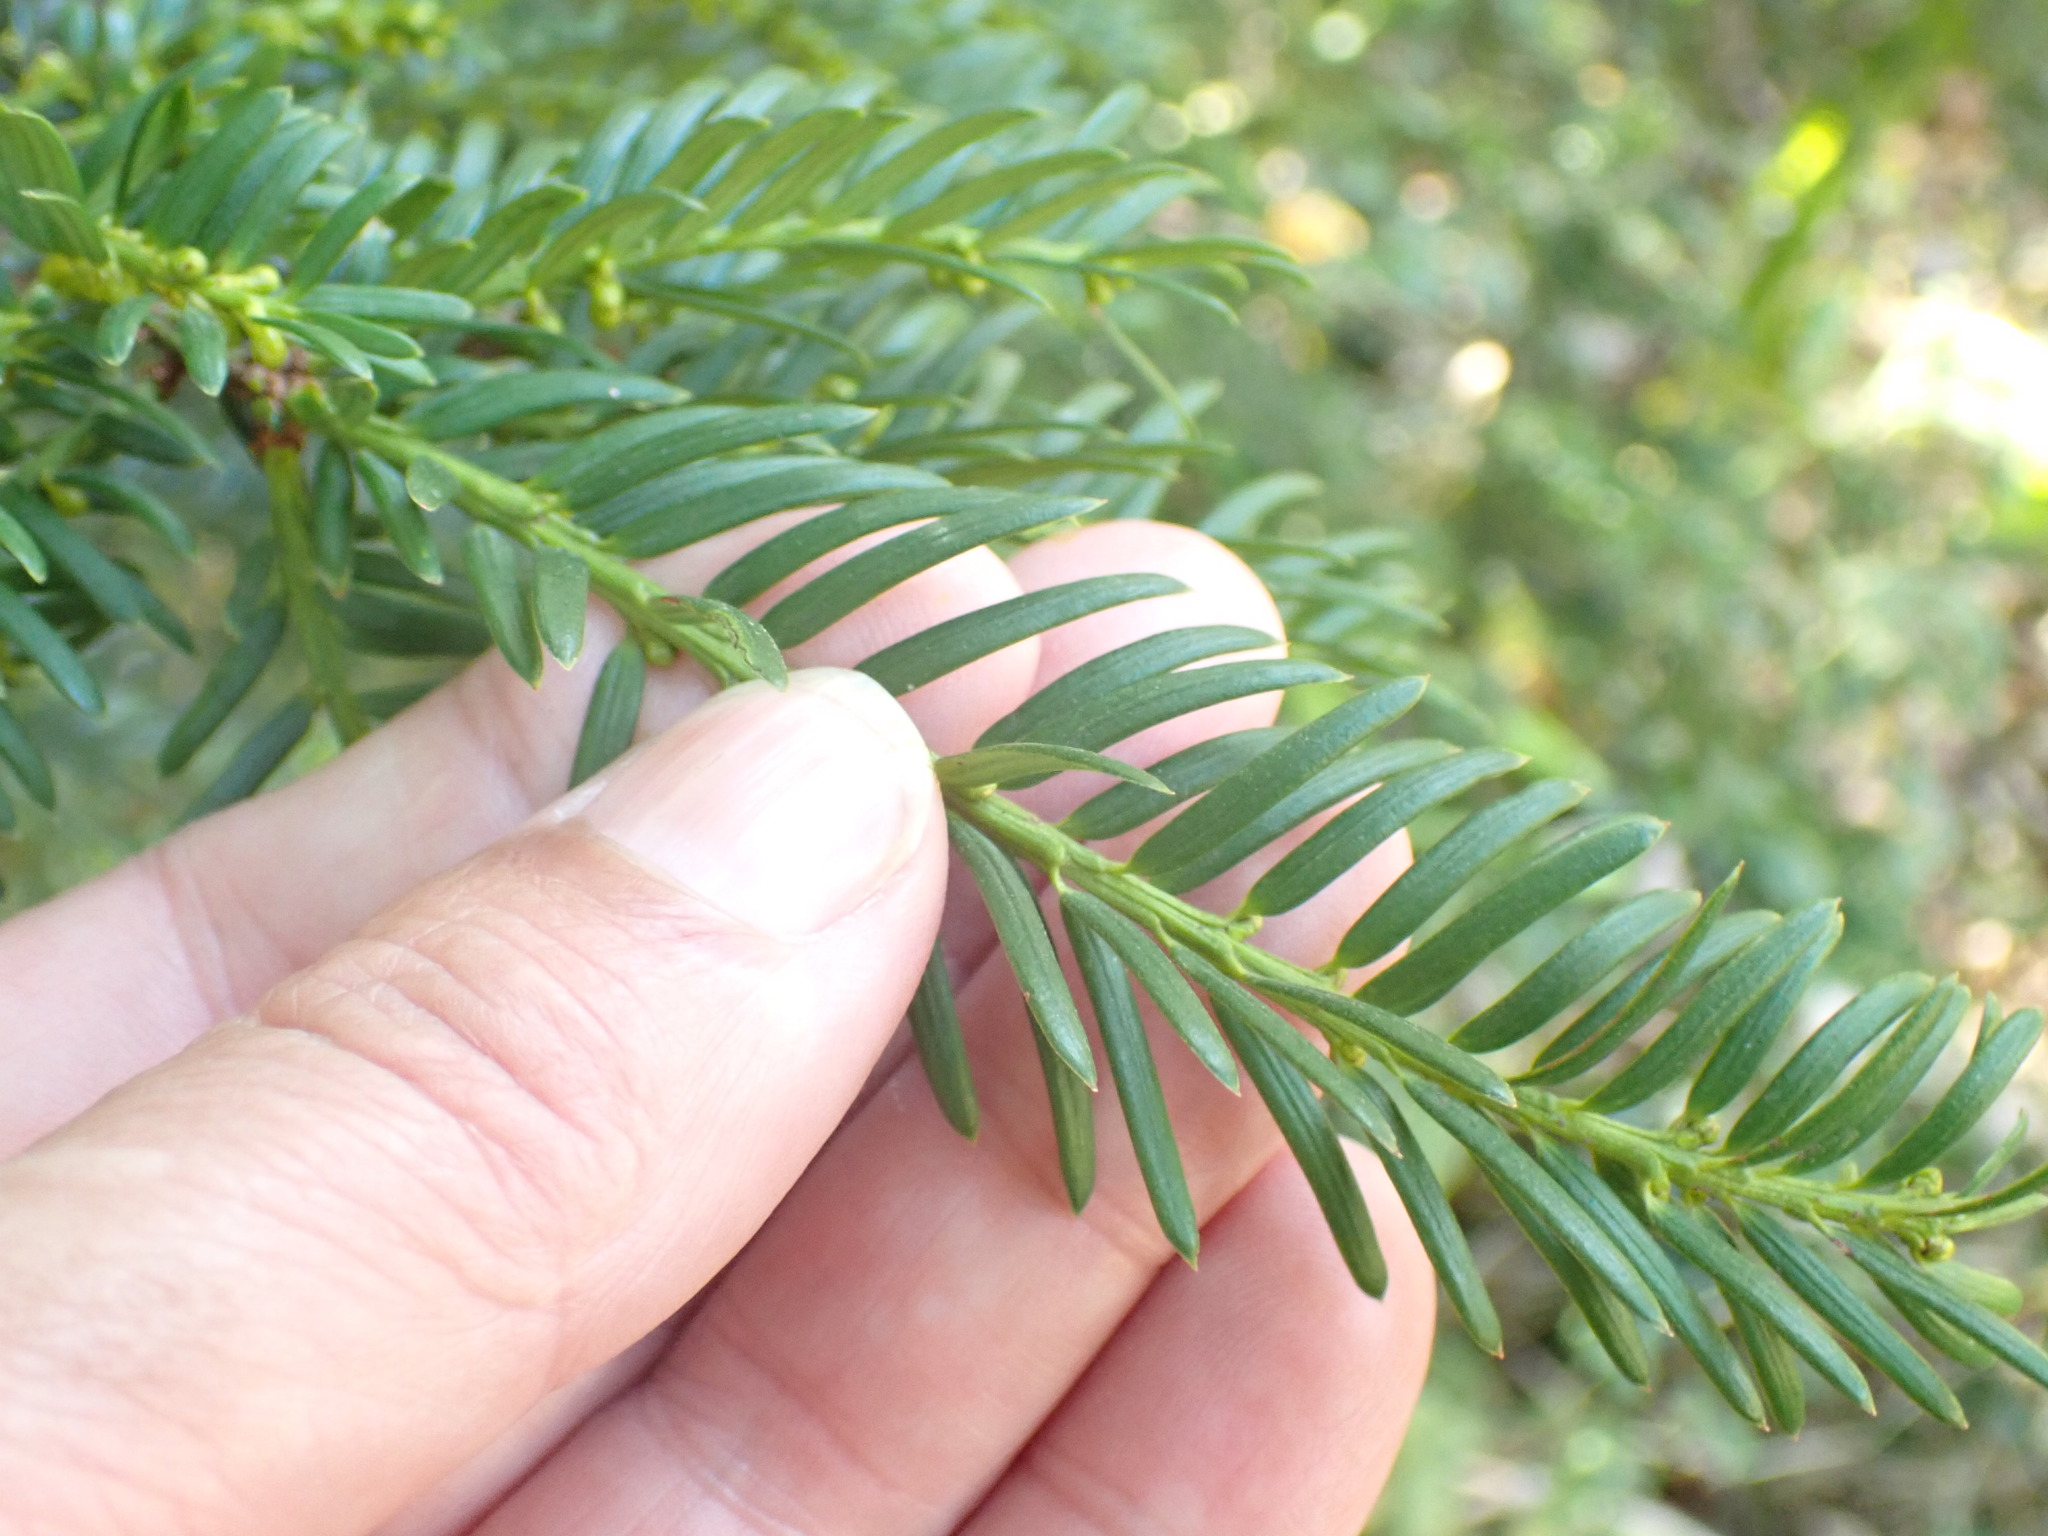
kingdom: Plantae
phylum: Tracheophyta
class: Pinopsida
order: Pinales
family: Taxaceae
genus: Taxus
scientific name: Taxus baccata
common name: Yew
